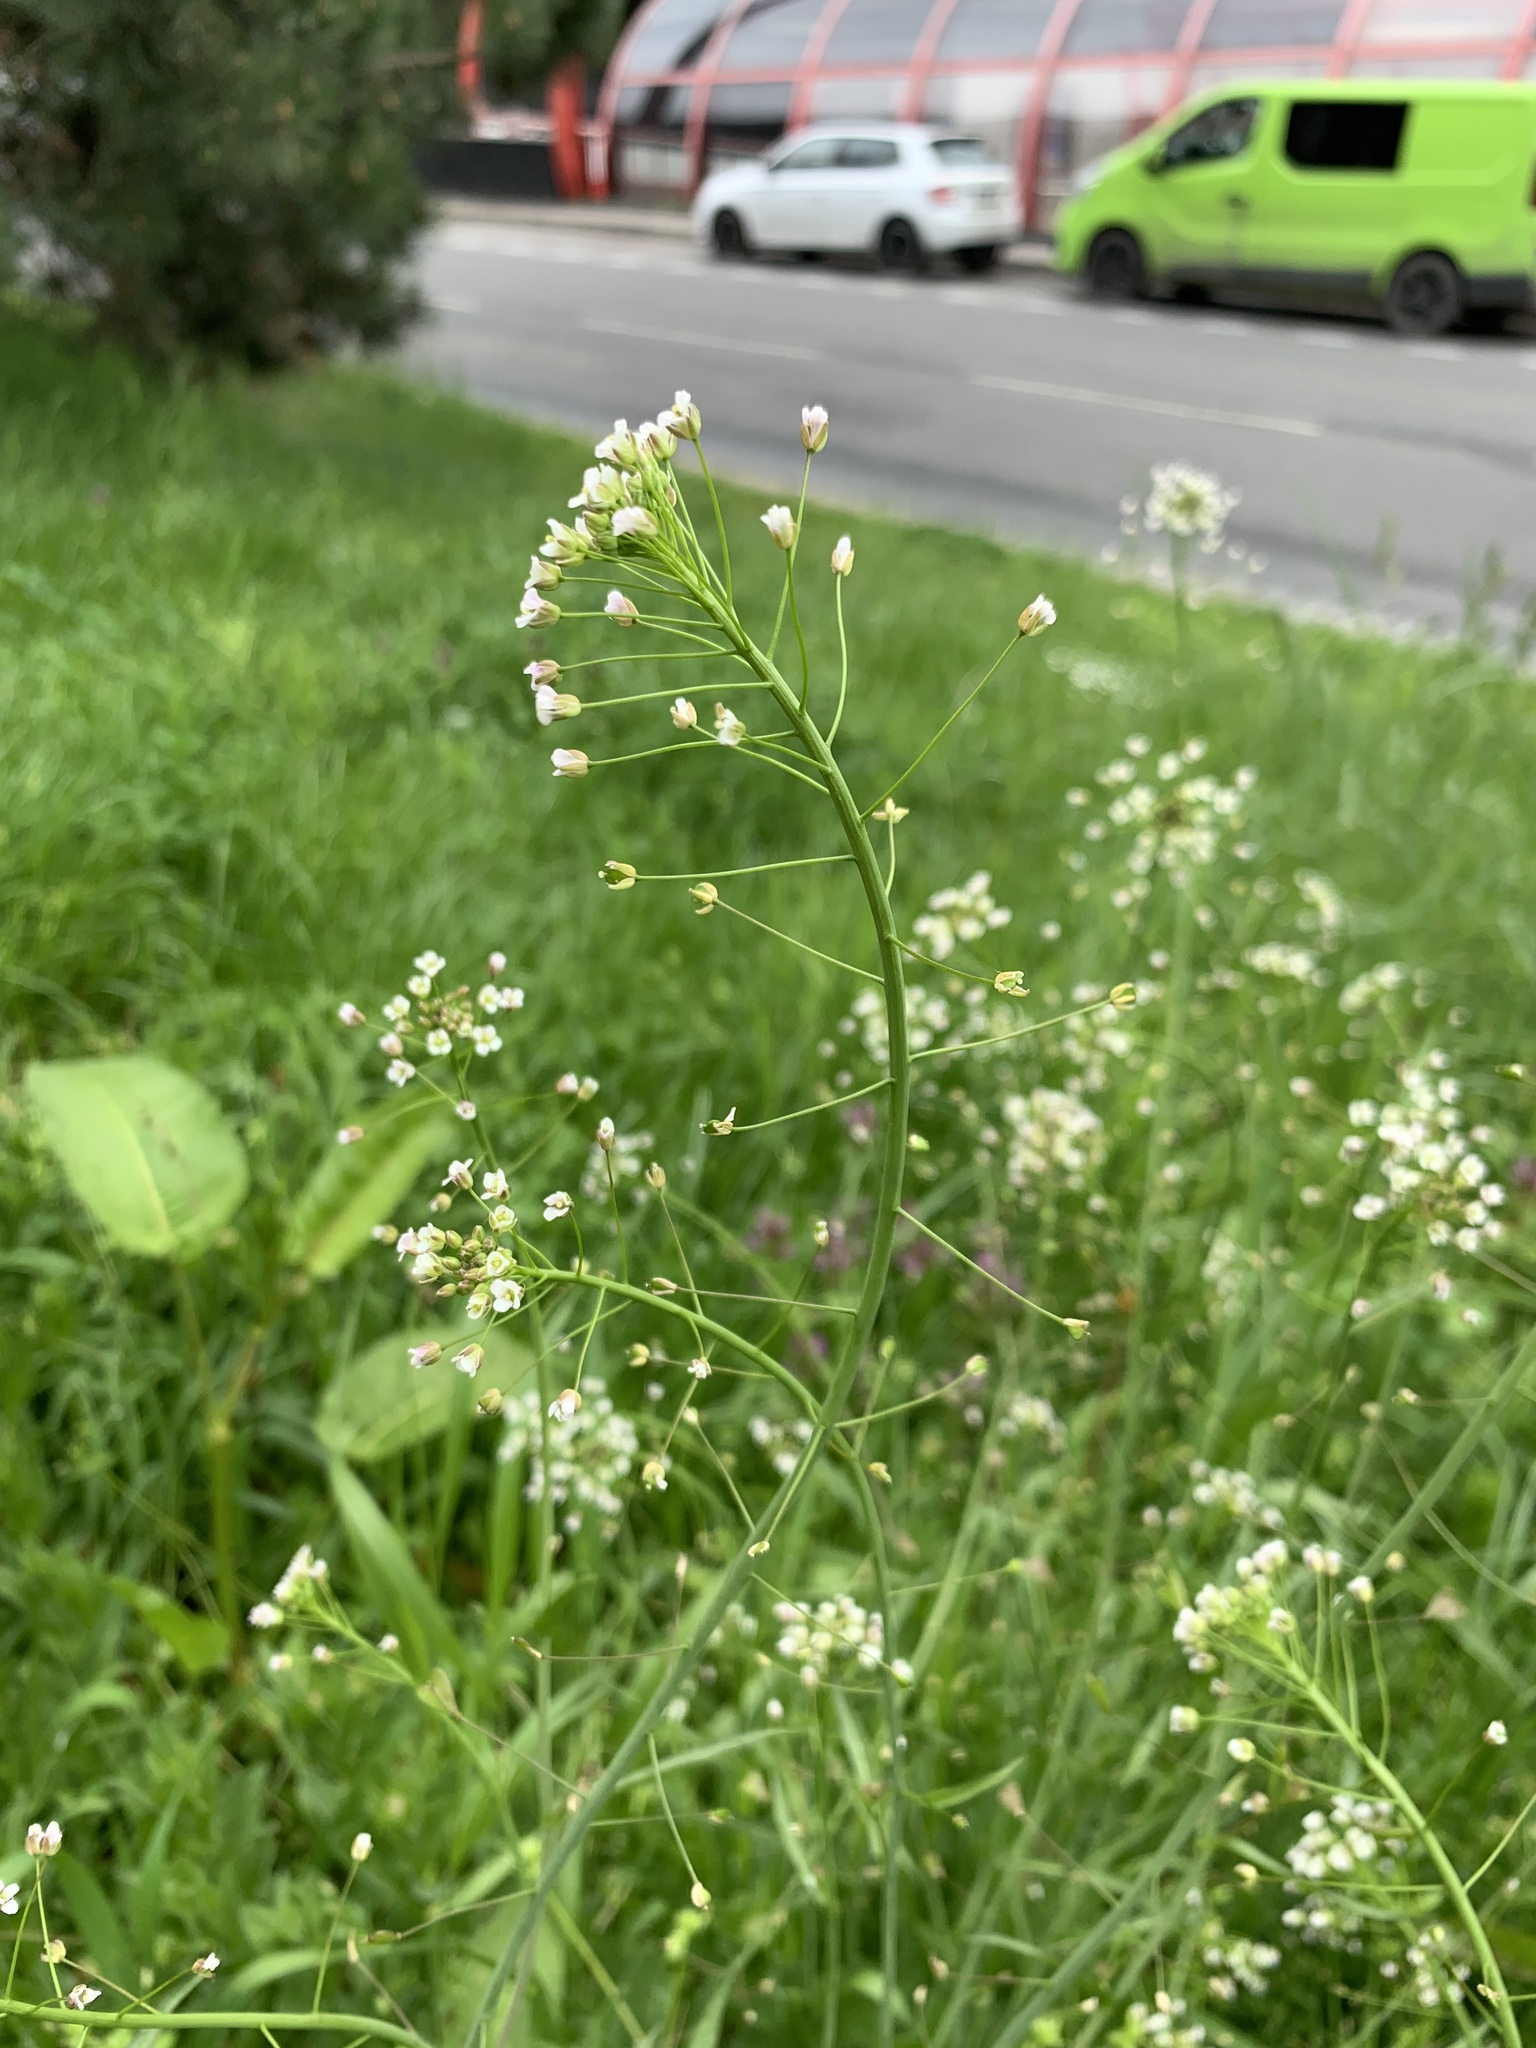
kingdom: Plantae
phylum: Tracheophyta
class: Magnoliopsida
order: Brassicales
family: Brassicaceae
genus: Capsella
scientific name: Capsella bursa-pastoris
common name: Shepherd's purse
